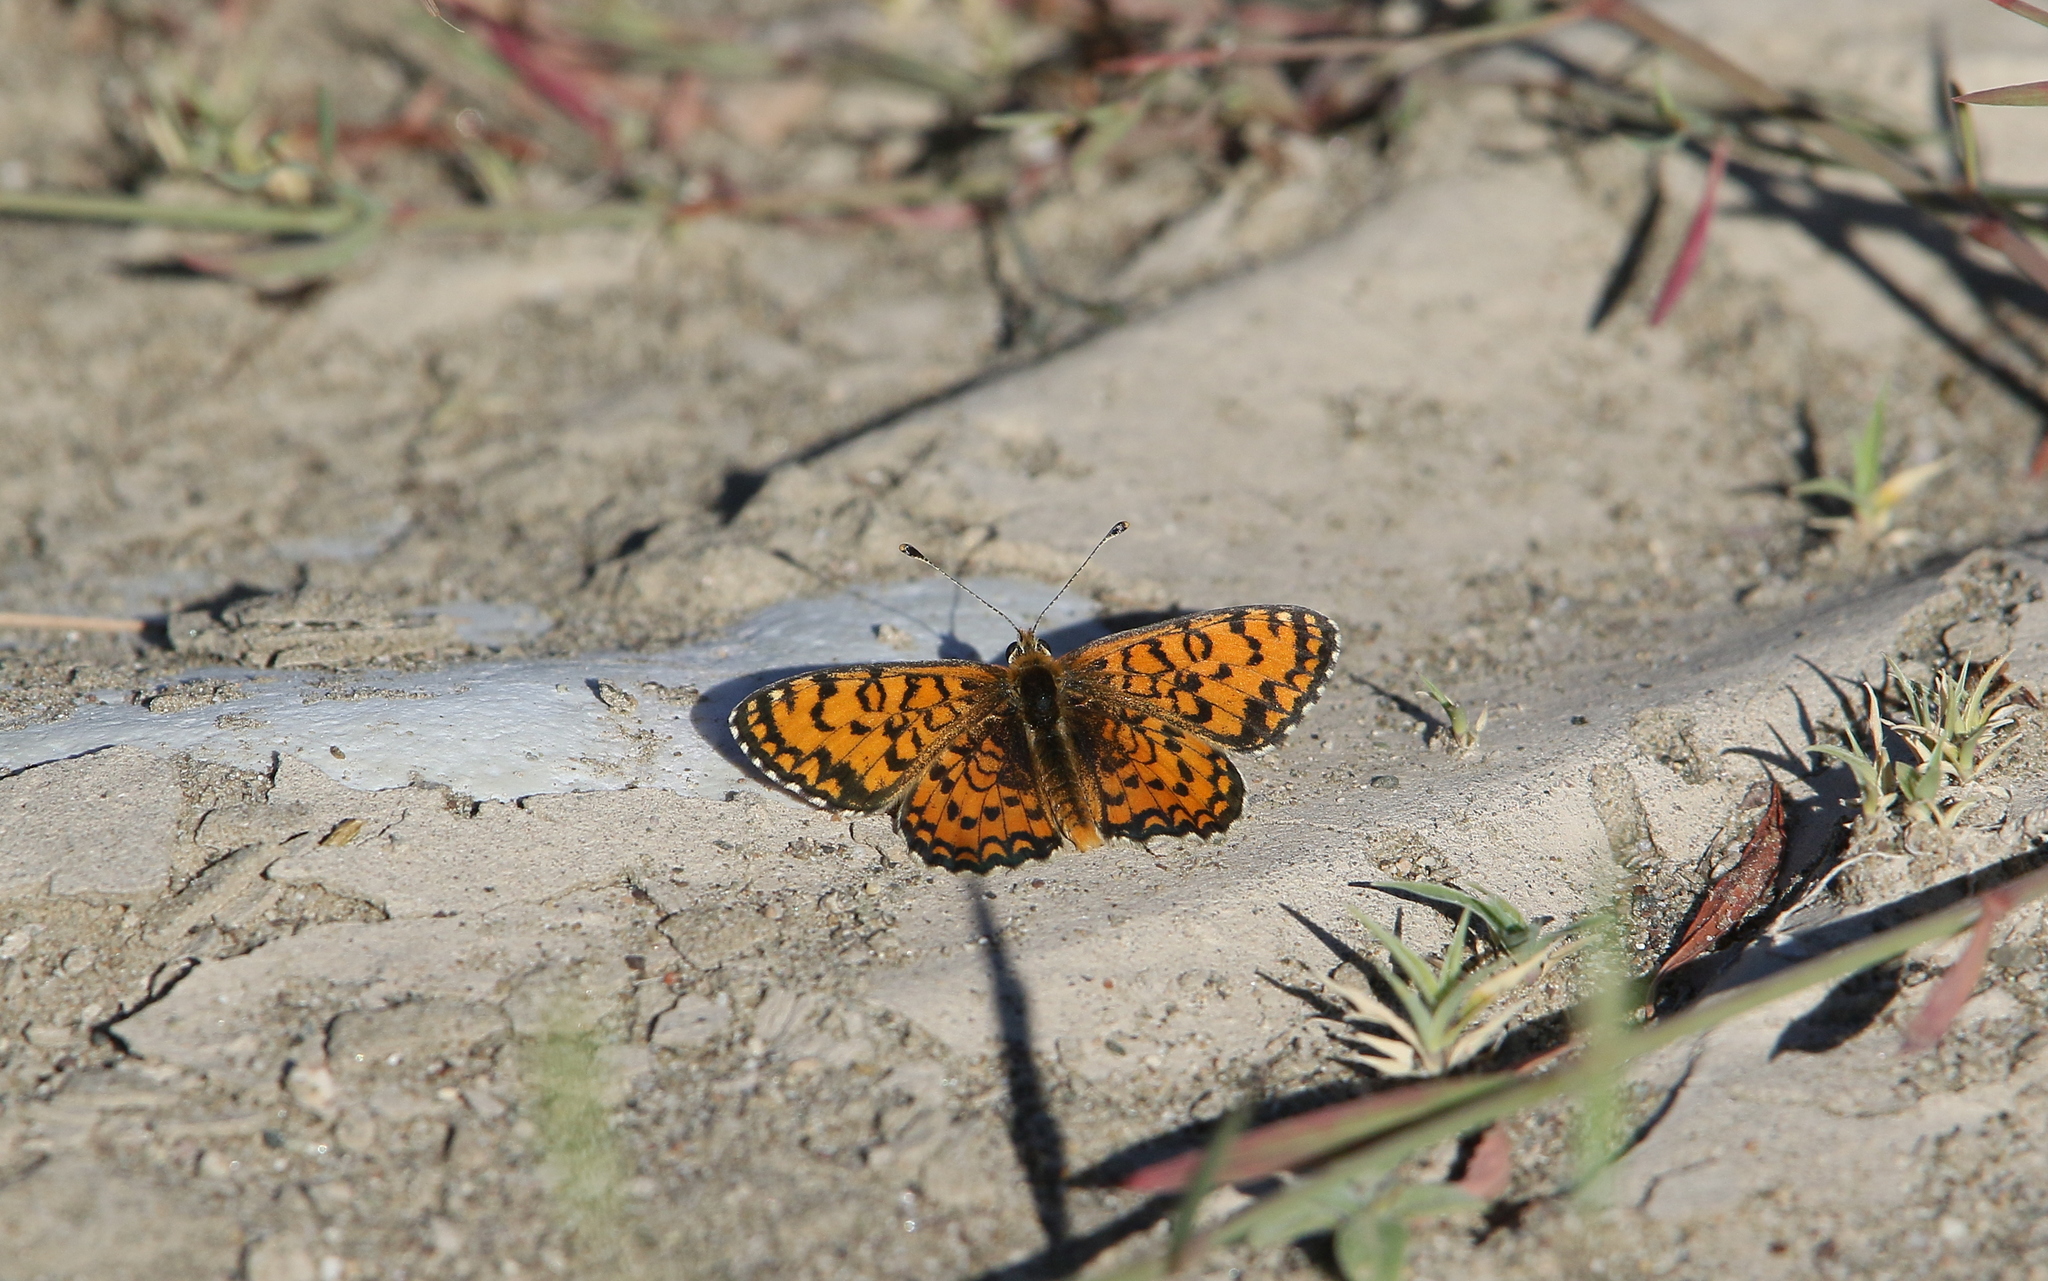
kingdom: Animalia
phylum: Arthropoda
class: Insecta
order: Lepidoptera
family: Nymphalidae
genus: Melitaea
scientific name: Melitaea trivia
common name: Lesser spotted fritillary
